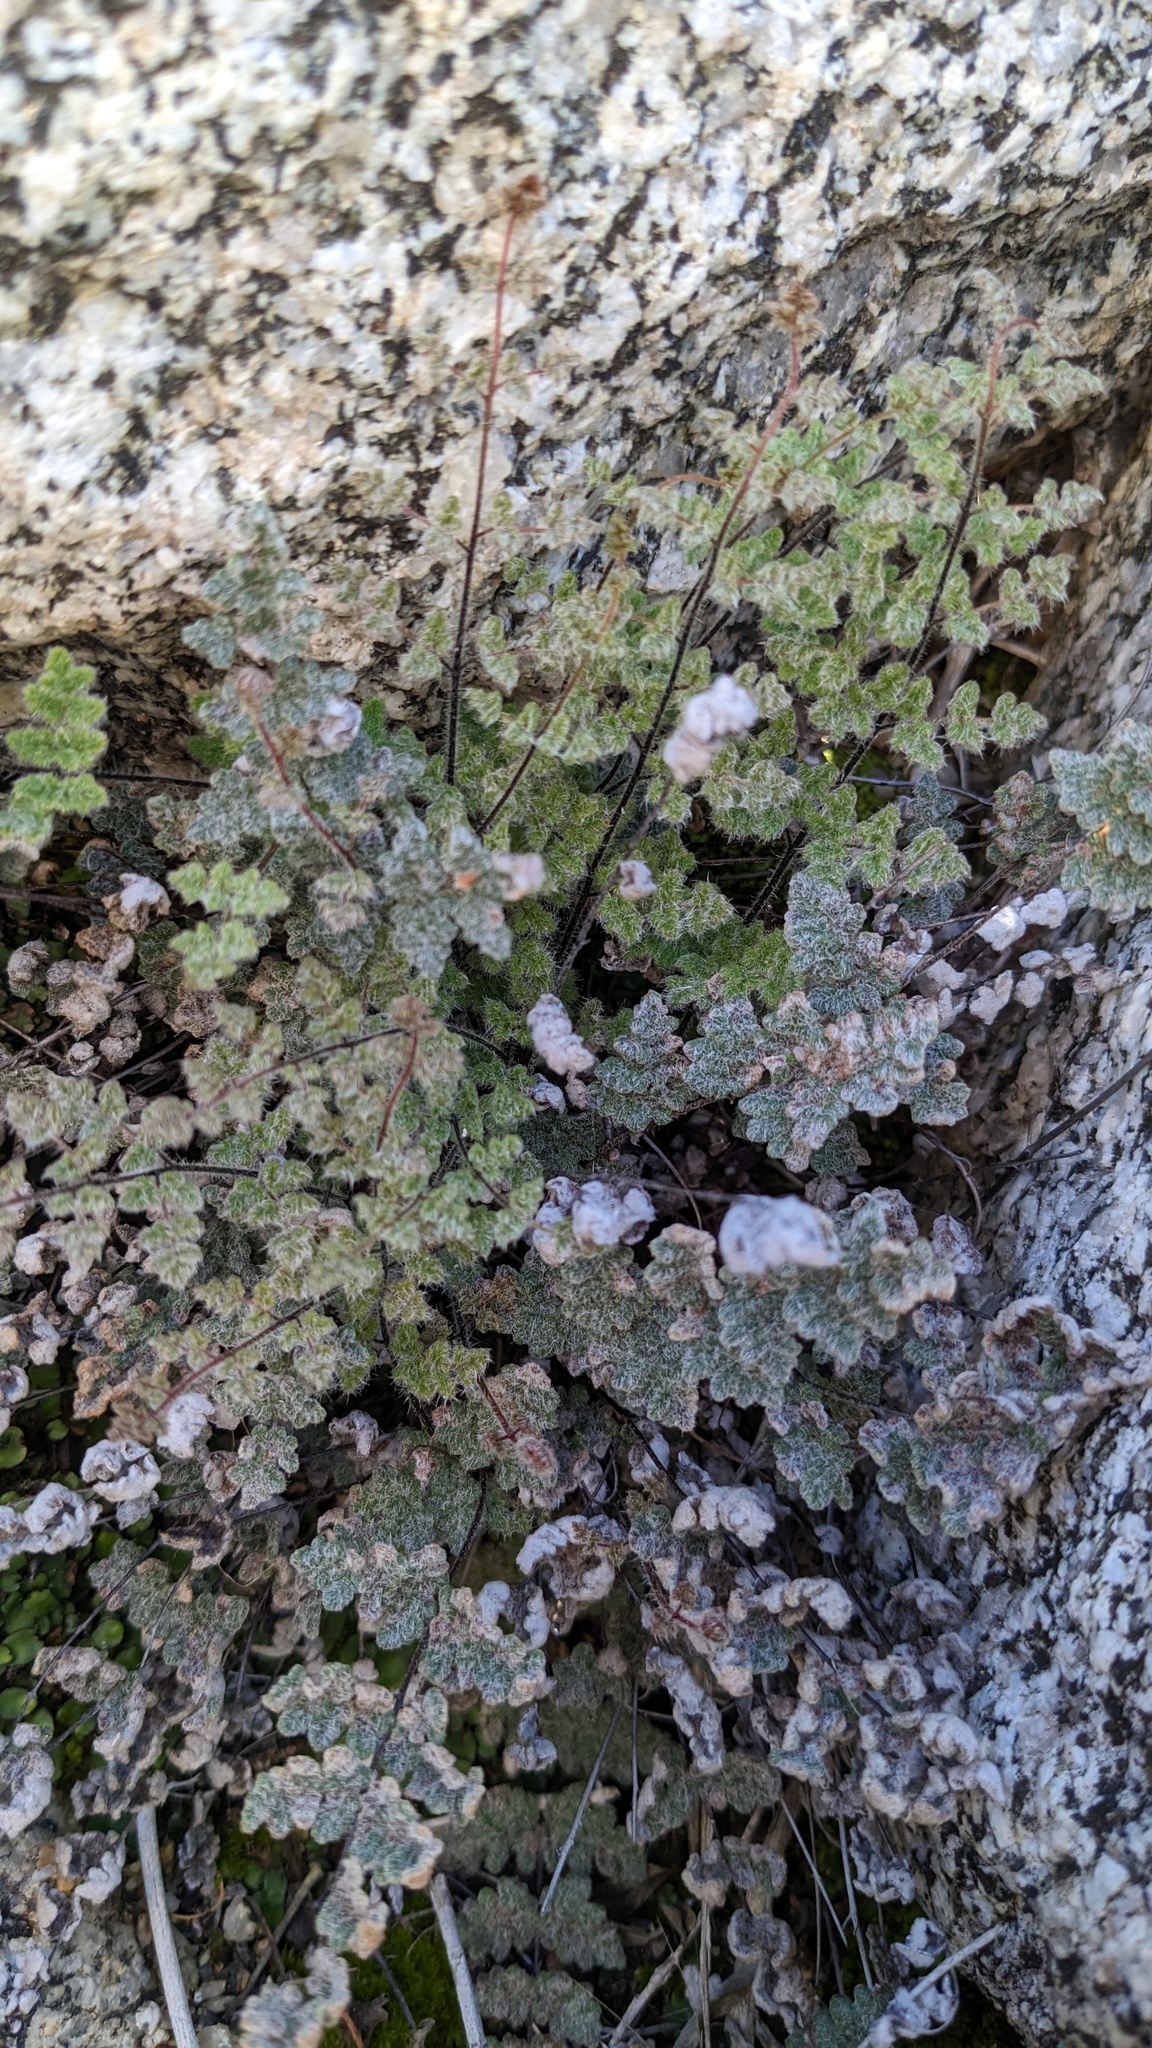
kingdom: Plantae
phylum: Tracheophyta
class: Polypodiopsida
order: Polypodiales
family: Pteridaceae
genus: Myriopteris
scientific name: Myriopteris parryi
